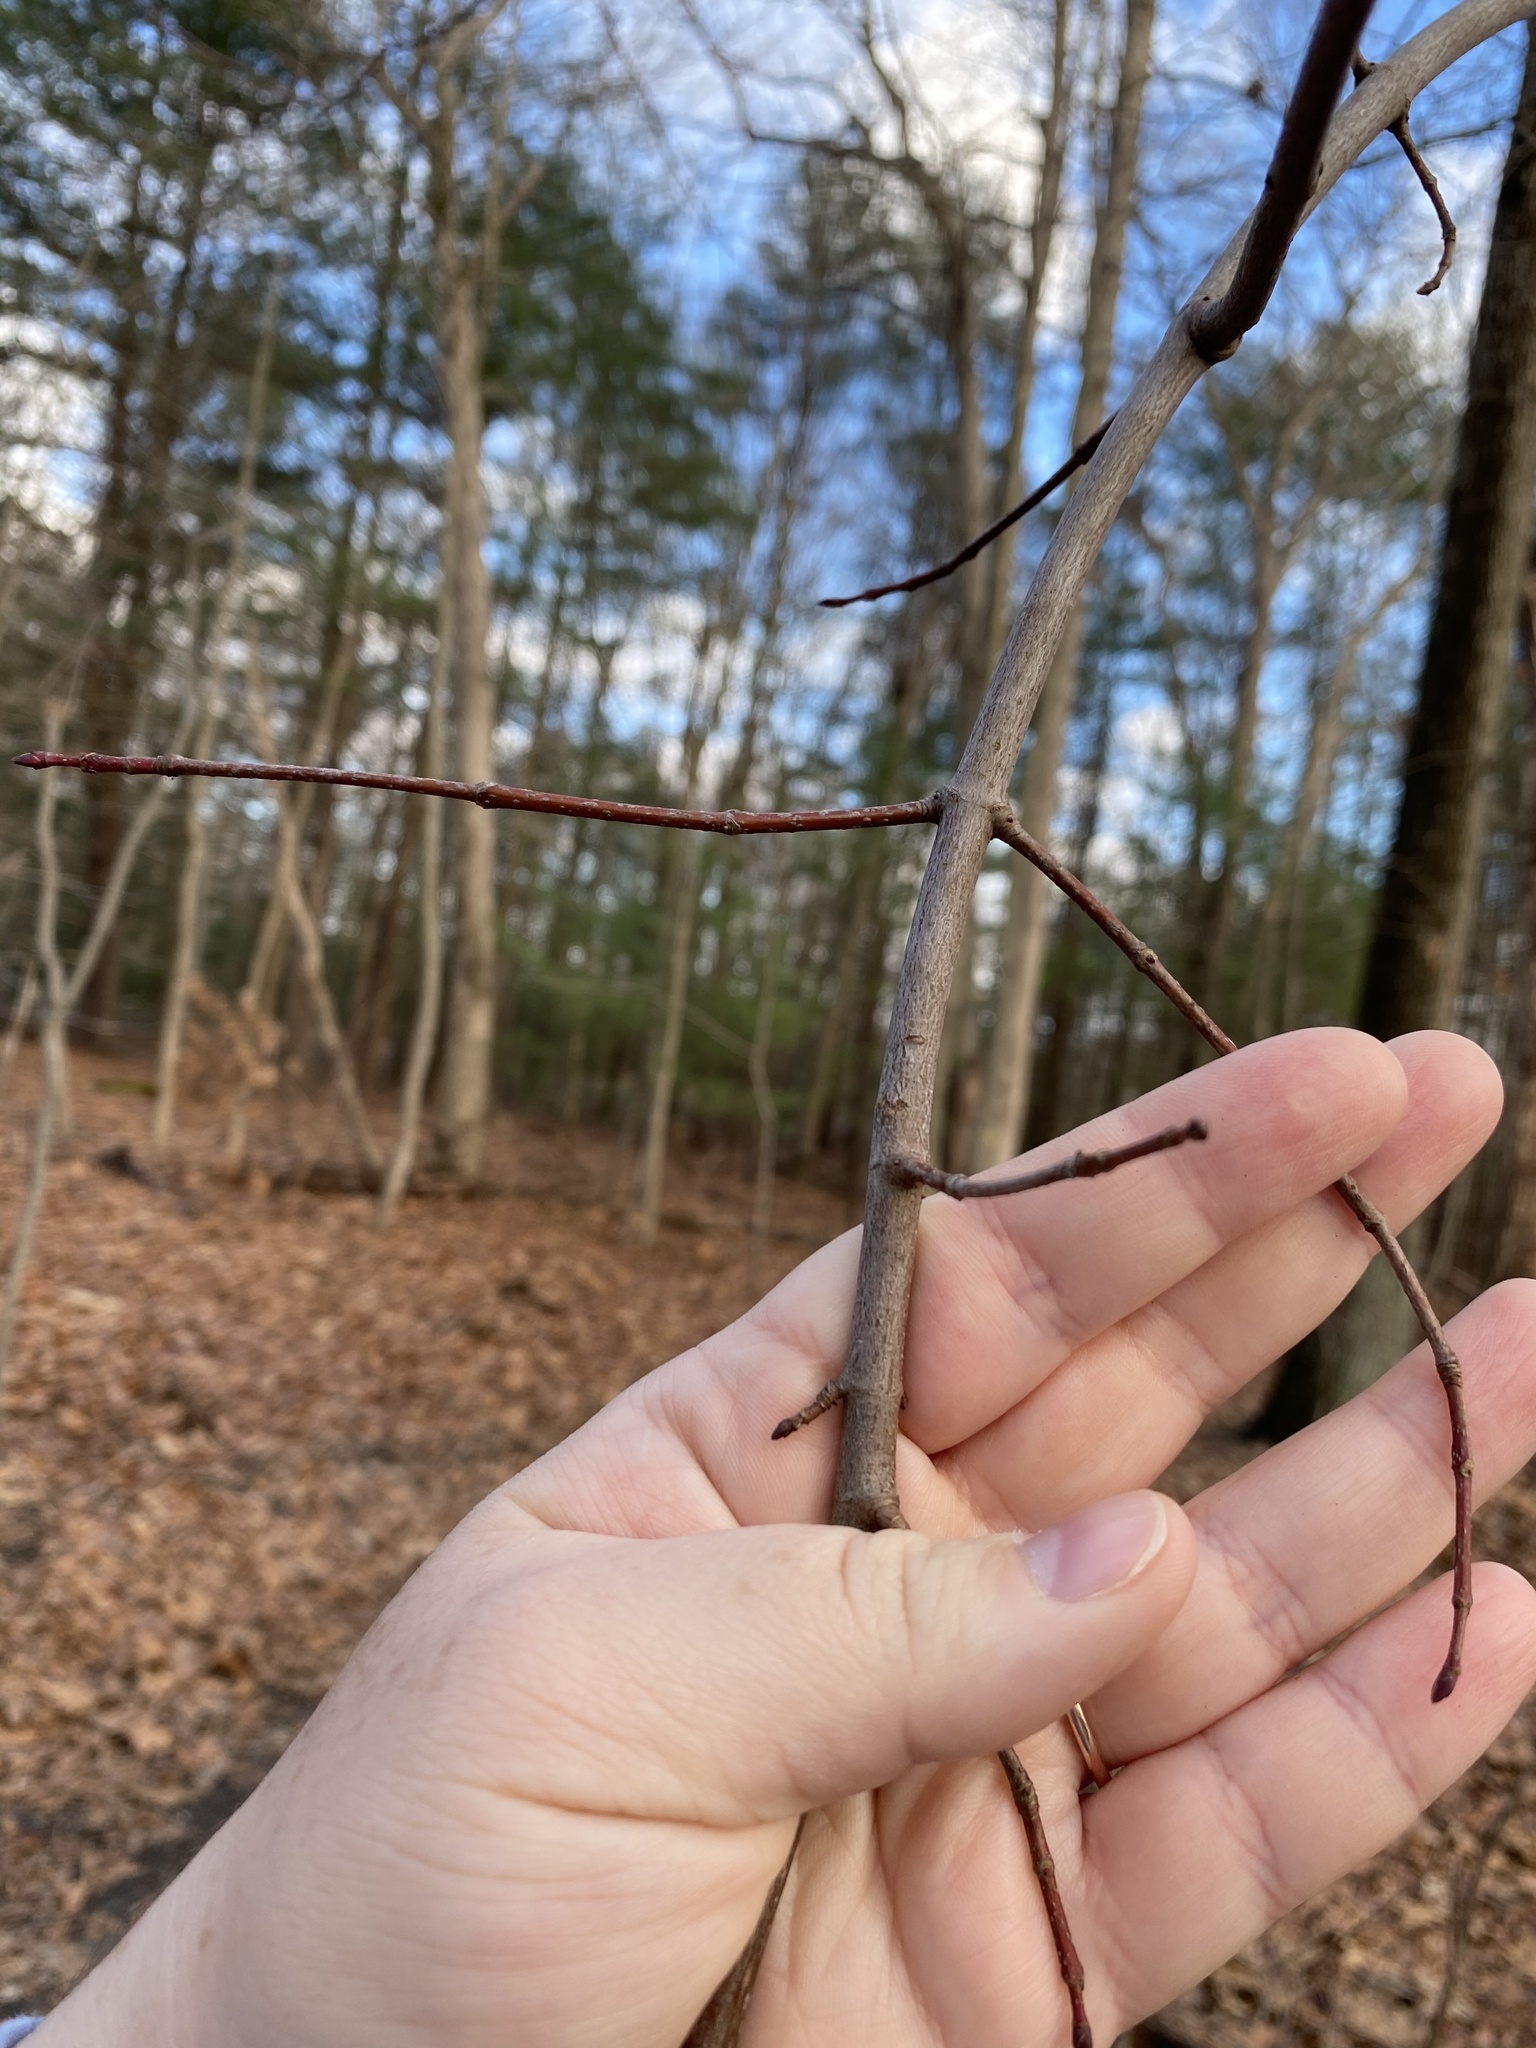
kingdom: Animalia
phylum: Arthropoda
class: Insecta
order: Hemiptera
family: Diaspididae
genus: Melanaspis
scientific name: Melanaspis tenebricosa
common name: Gloomy scale
